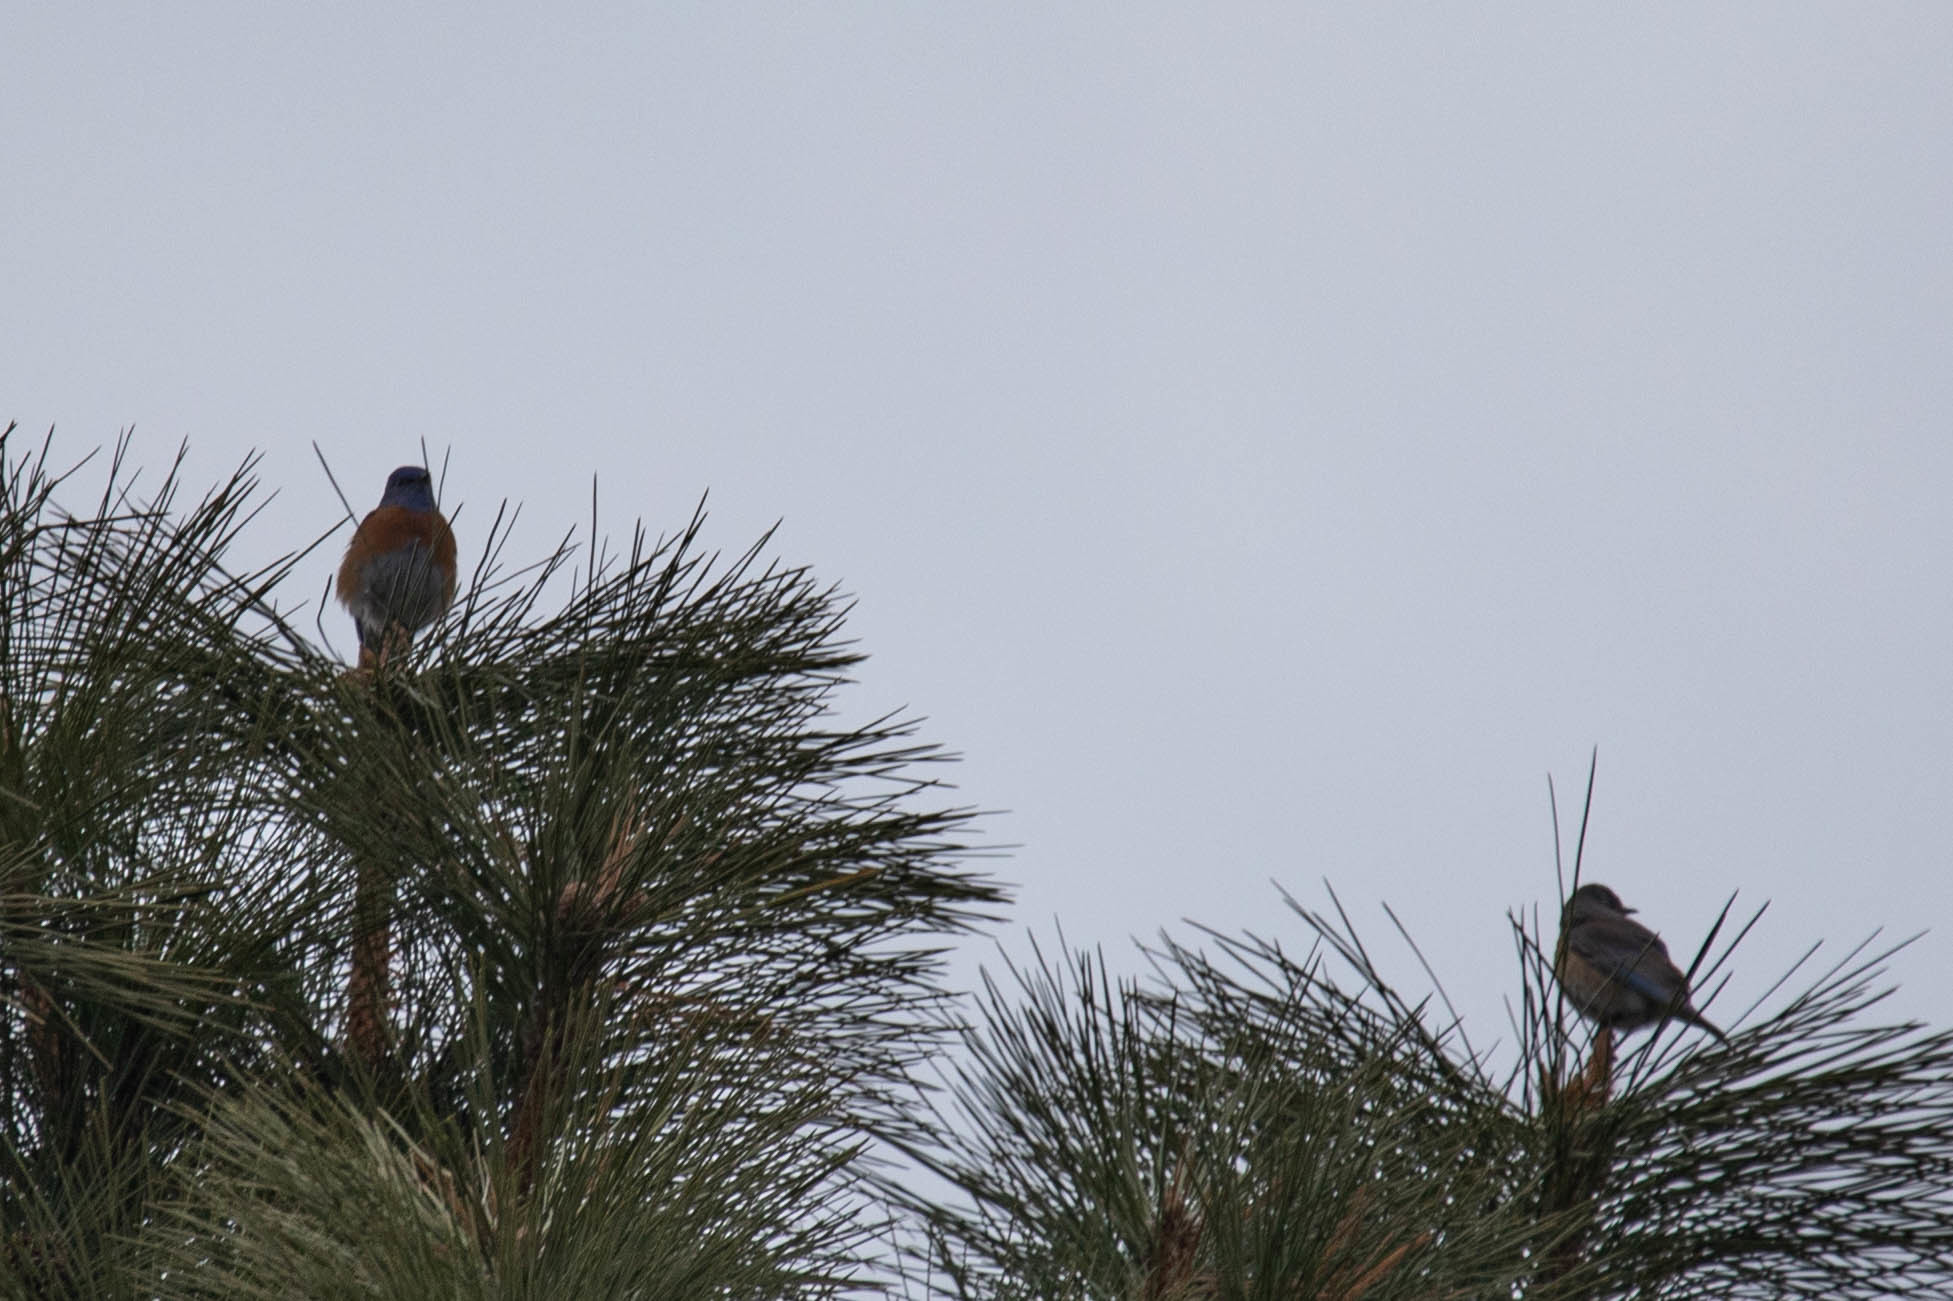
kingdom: Animalia
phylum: Chordata
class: Aves
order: Passeriformes
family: Turdidae
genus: Sialia
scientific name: Sialia mexicana
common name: Western bluebird
